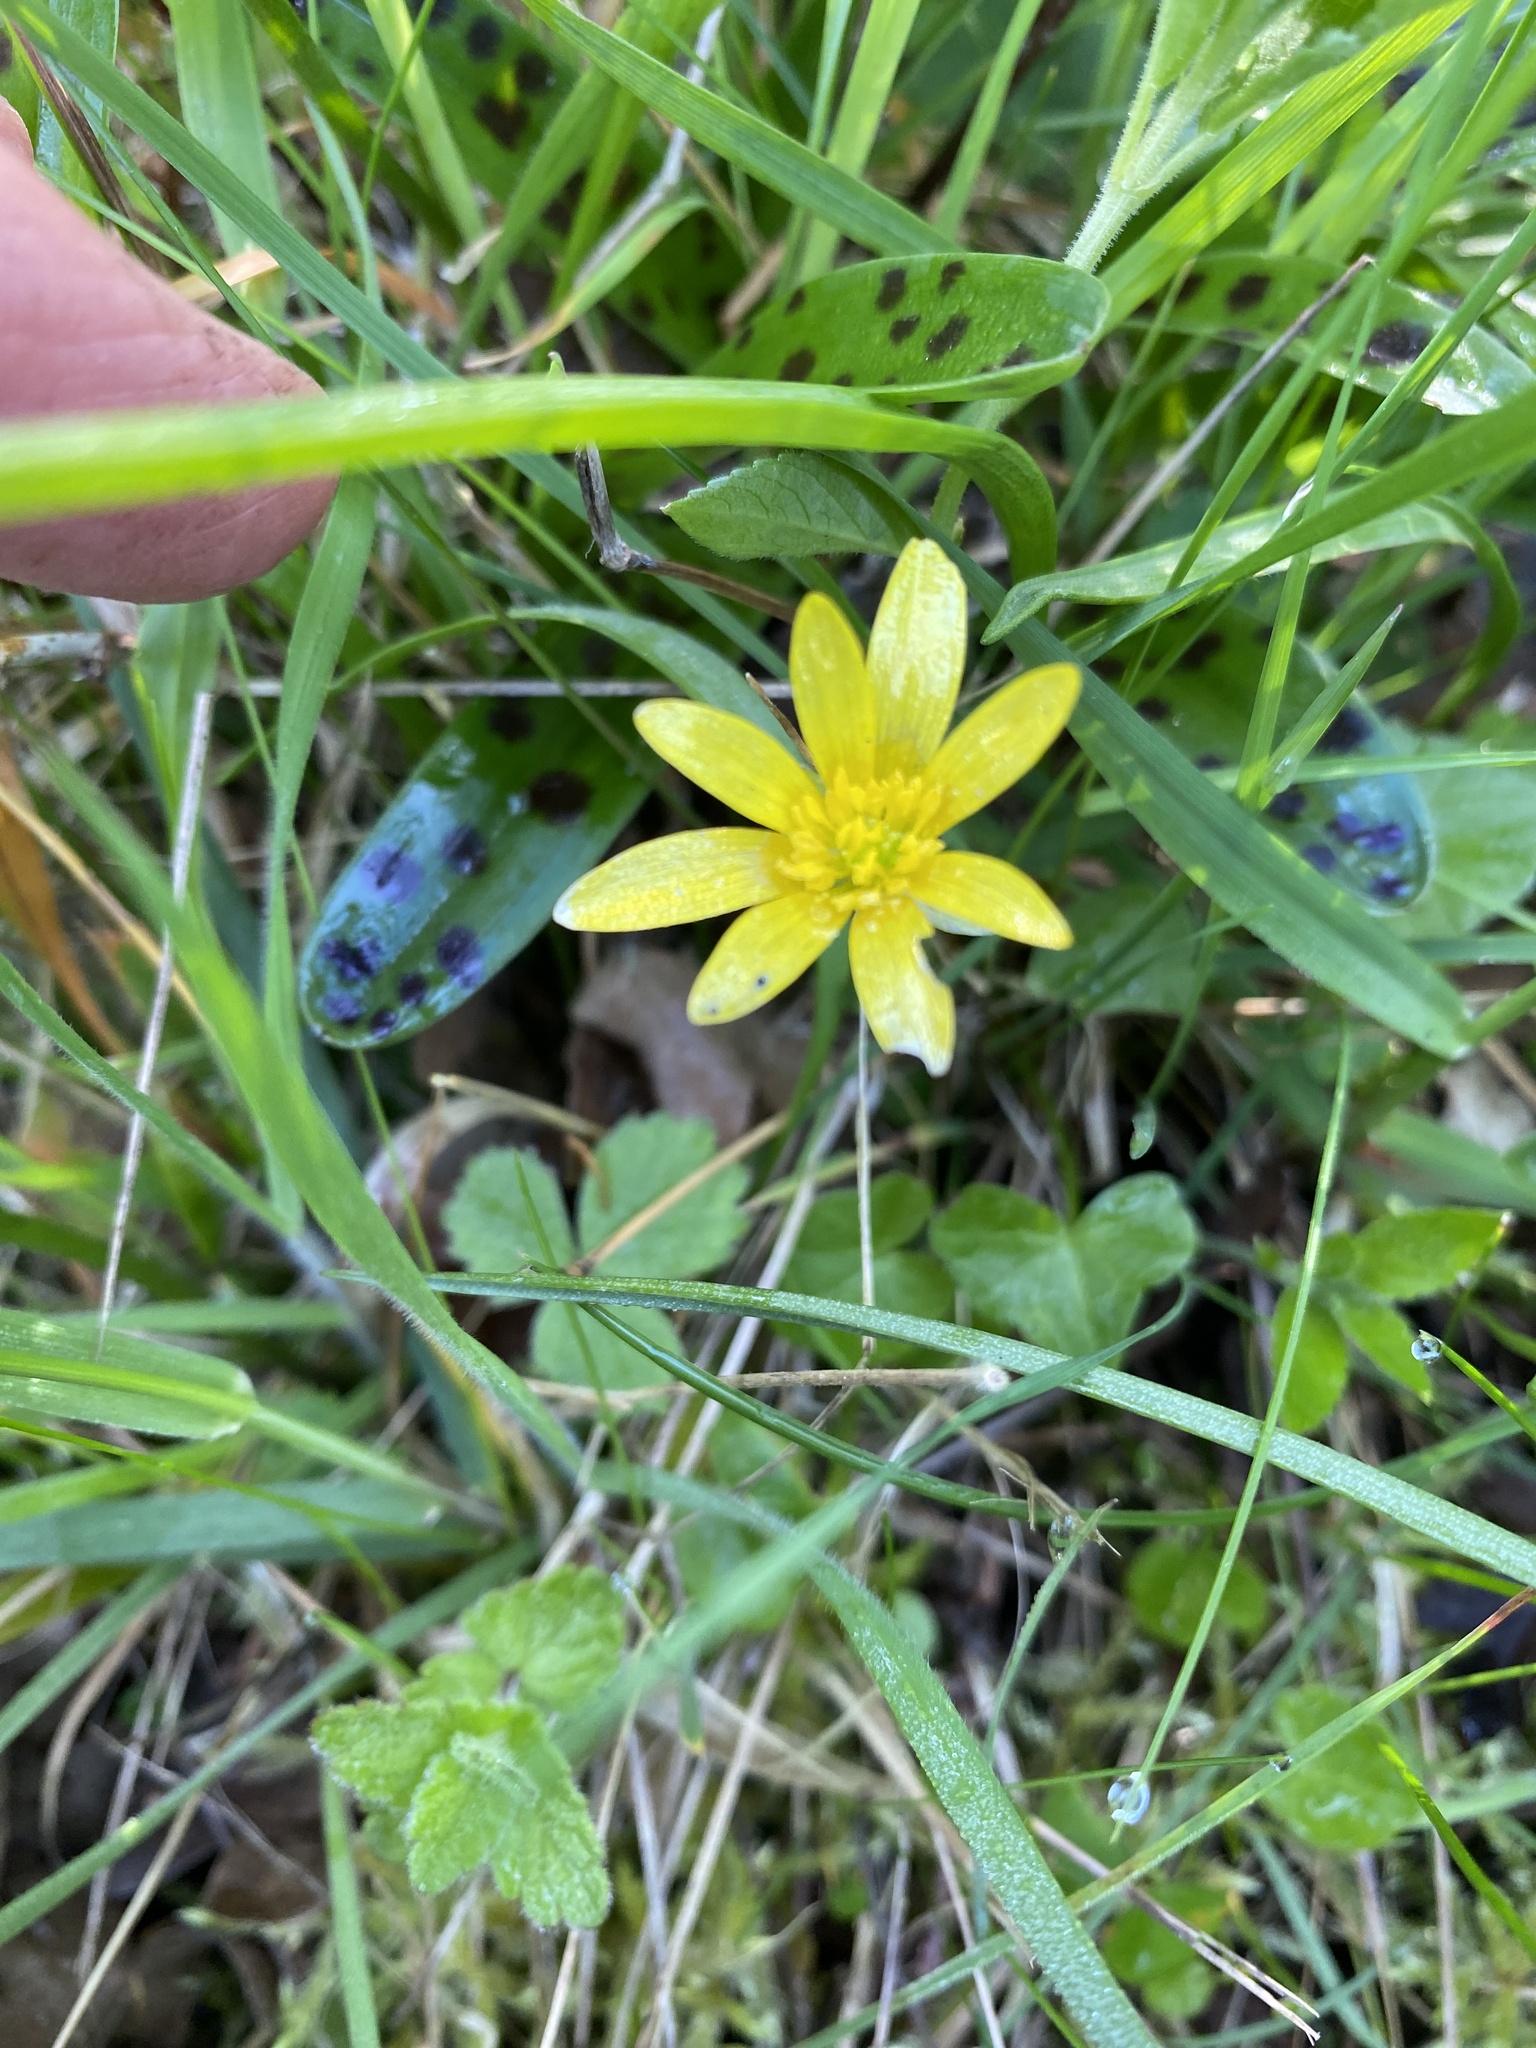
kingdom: Plantae
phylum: Tracheophyta
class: Magnoliopsida
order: Ranunculales
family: Ranunculaceae
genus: Ficaria
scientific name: Ficaria verna
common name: Lesser celandine
